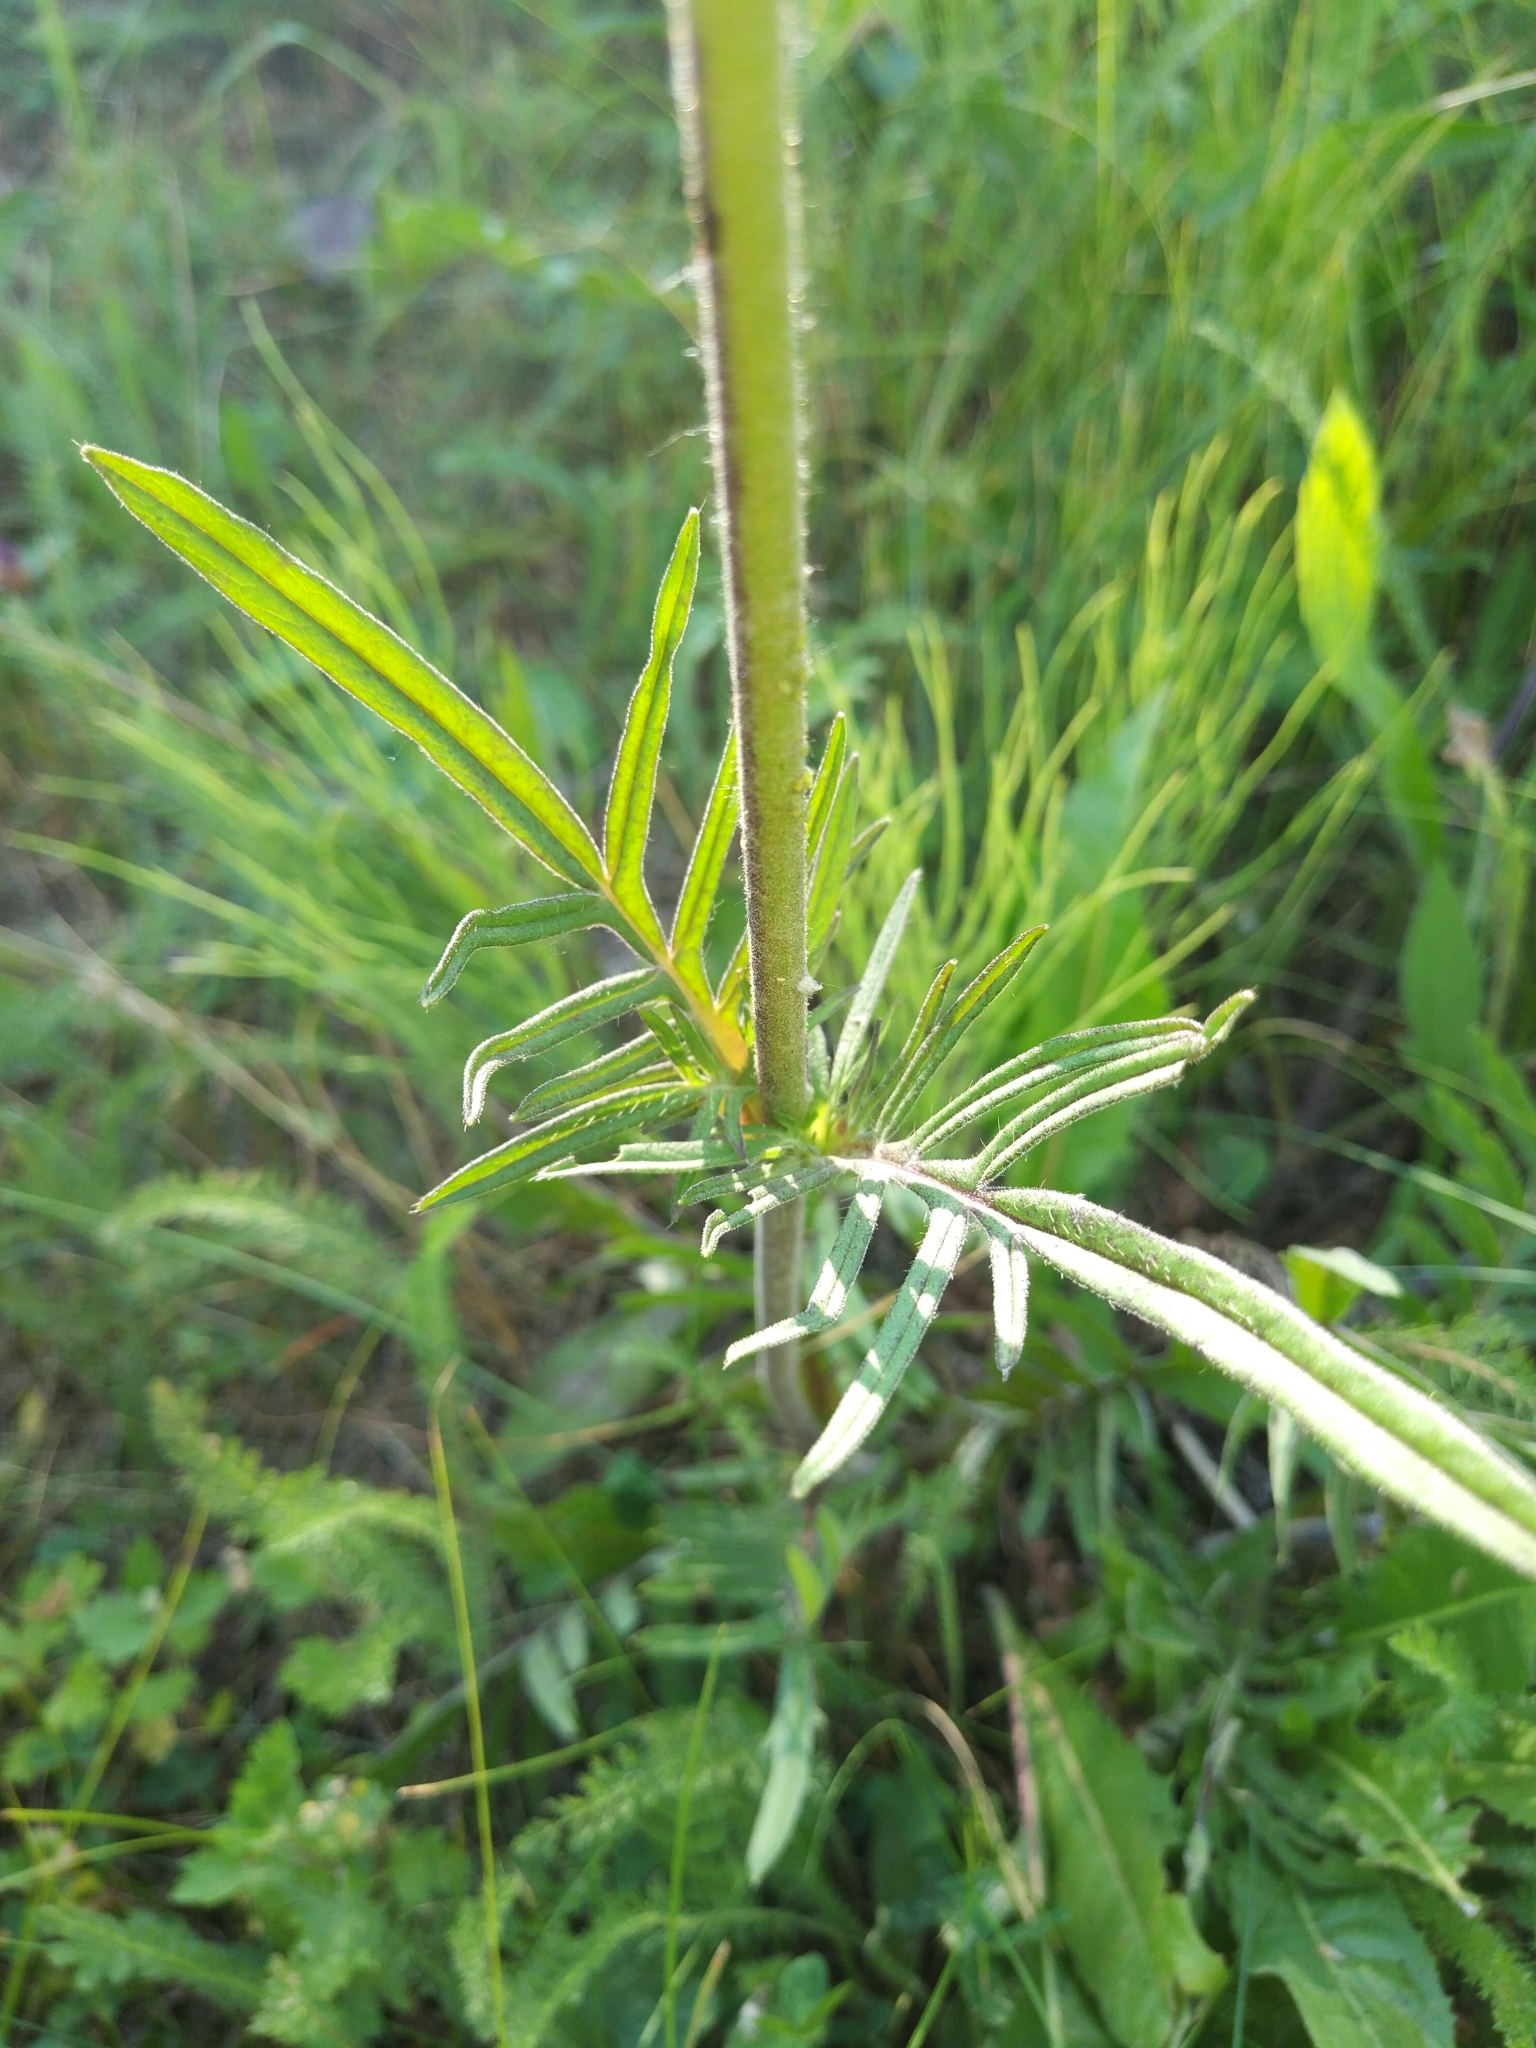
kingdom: Plantae
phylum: Tracheophyta
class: Magnoliopsida
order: Dipsacales
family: Caprifoliaceae
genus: Knautia
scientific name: Knautia arvensis
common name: Field scabiosa
